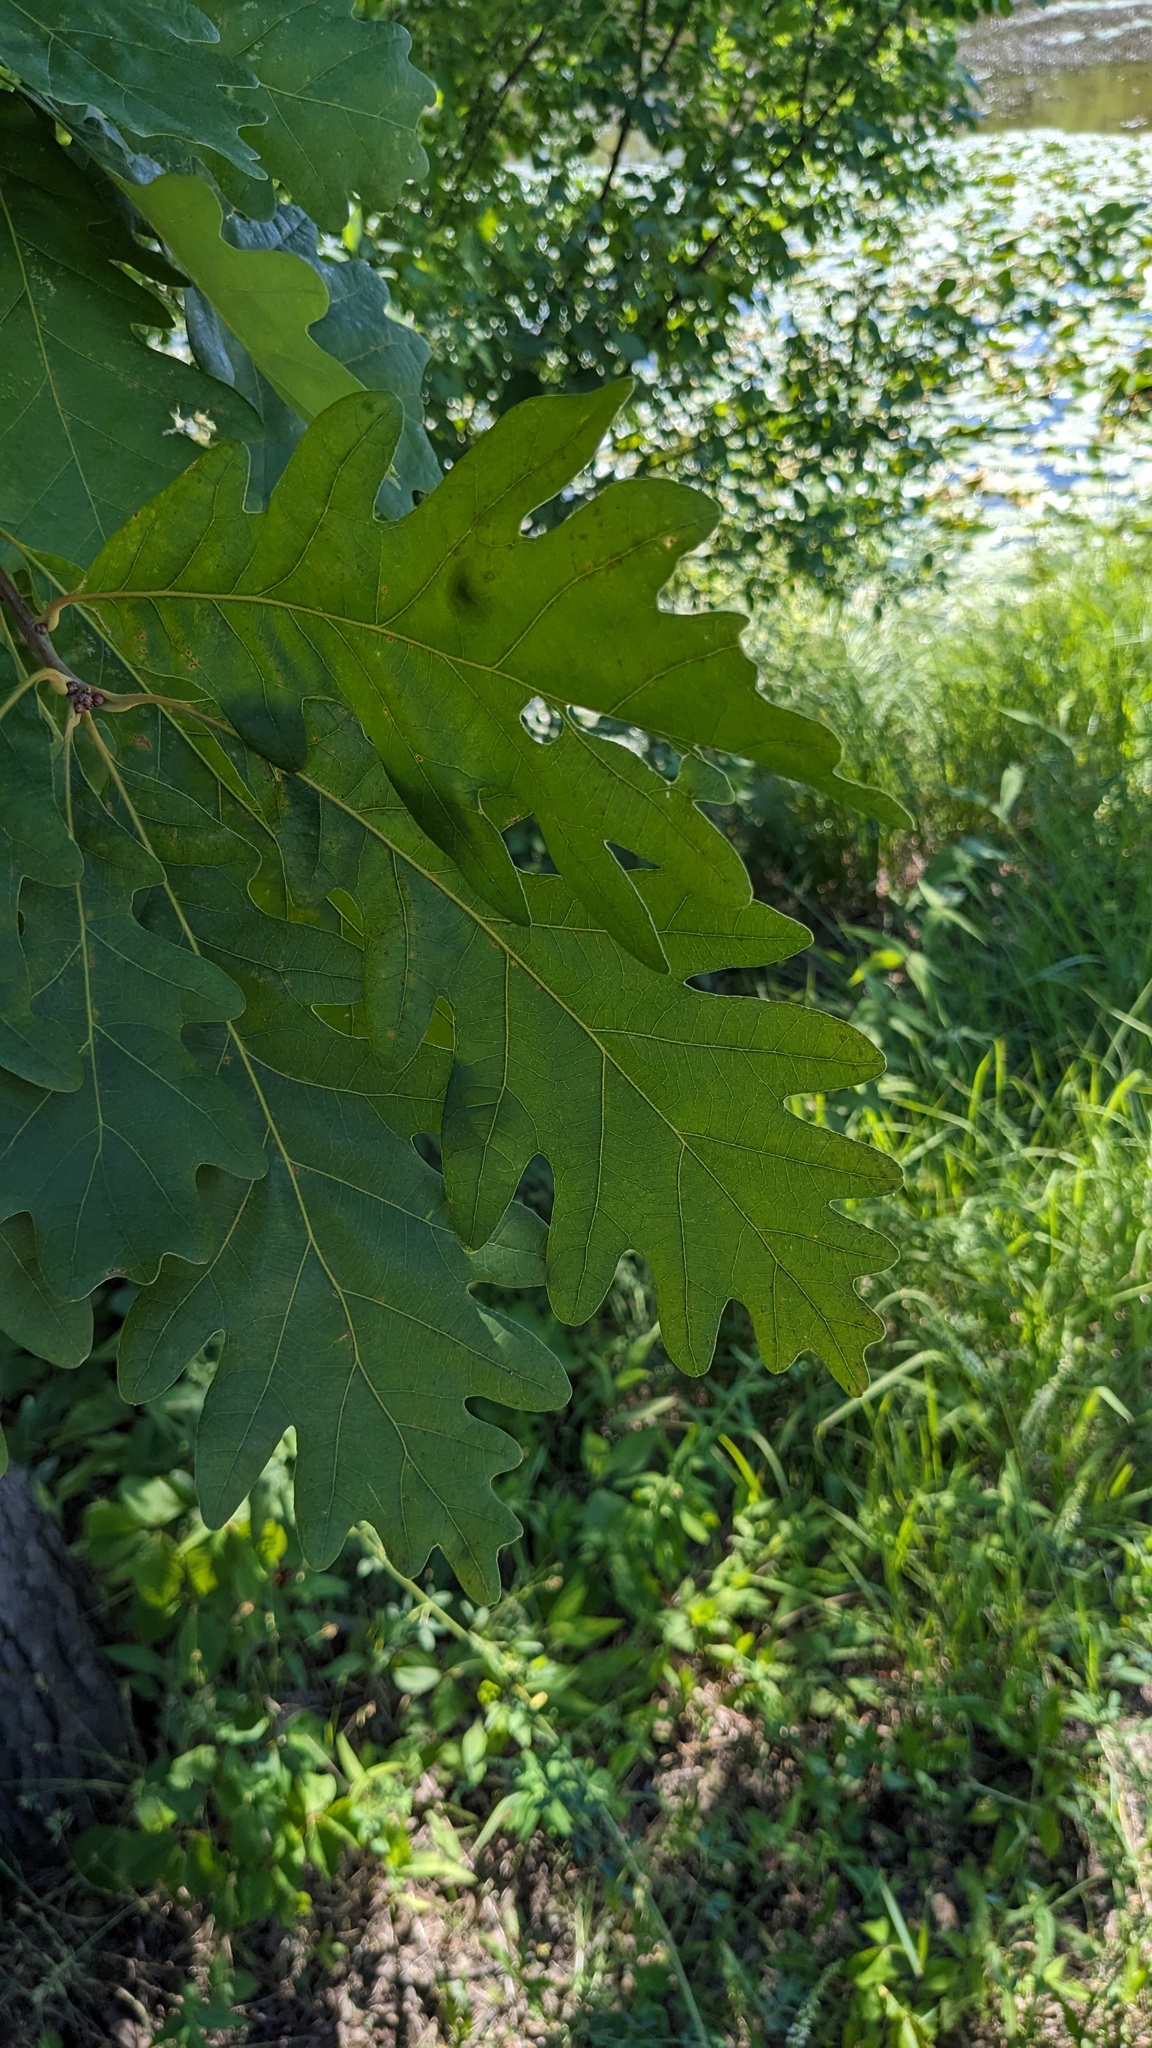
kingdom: Plantae
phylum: Tracheophyta
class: Magnoliopsida
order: Fagales
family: Fagaceae
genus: Quercus
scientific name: Quercus alba
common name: White oak
